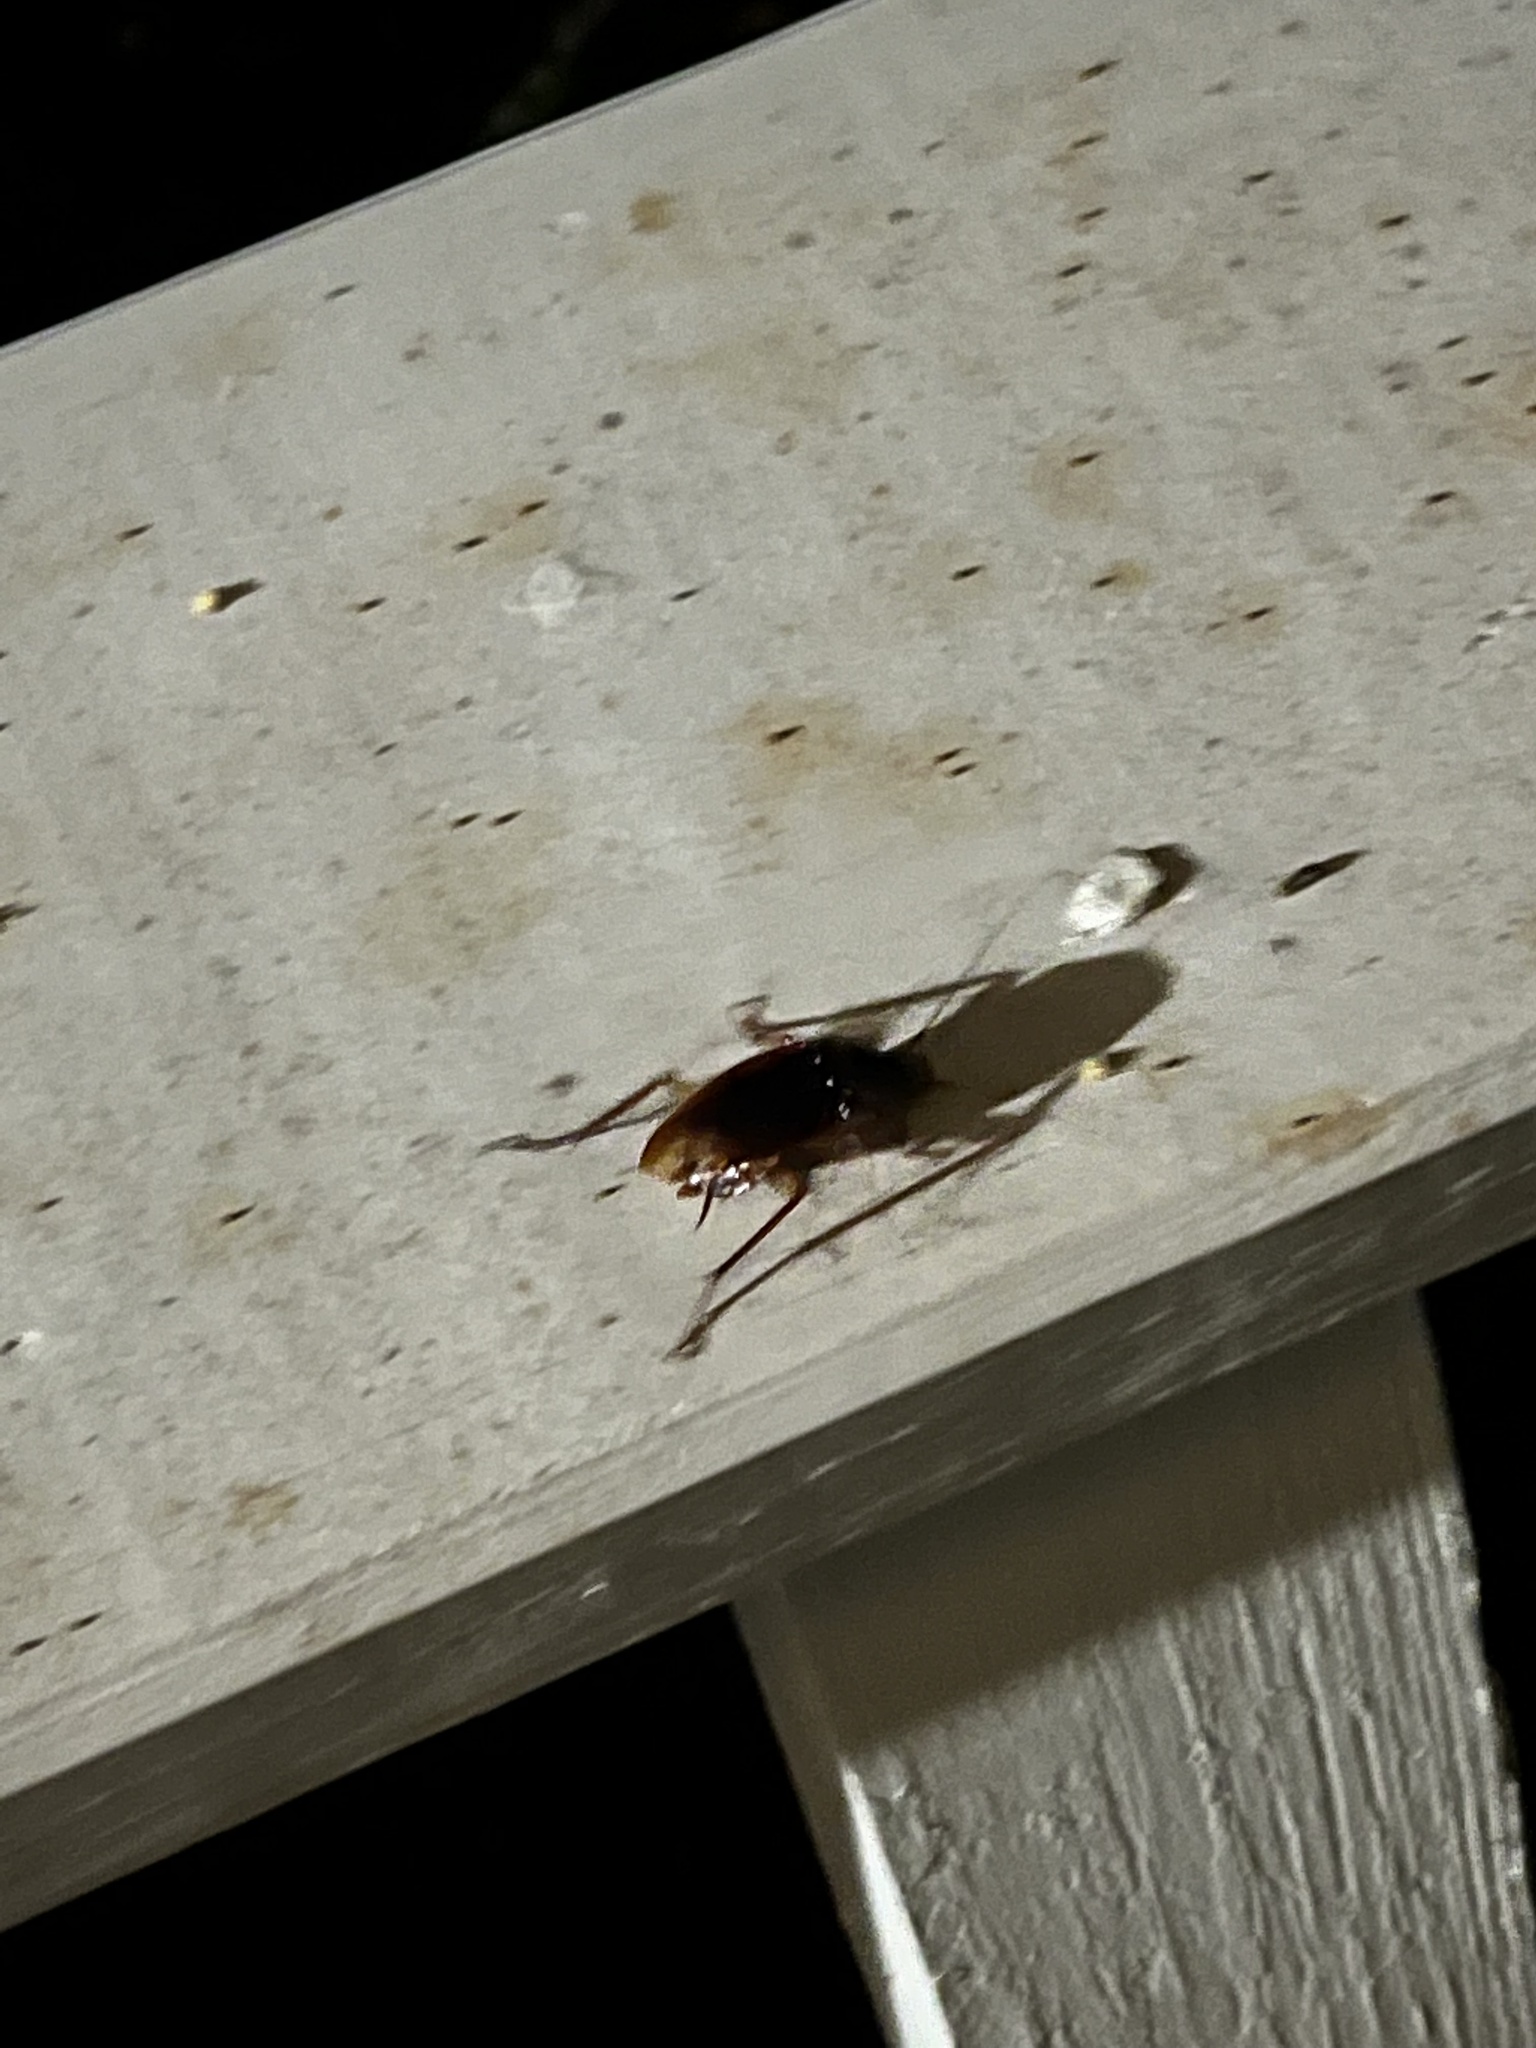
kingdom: Animalia
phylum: Arthropoda
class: Insecta
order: Blattodea
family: Blattidae
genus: Periplaneta
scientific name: Periplaneta americana
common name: American cockroach
